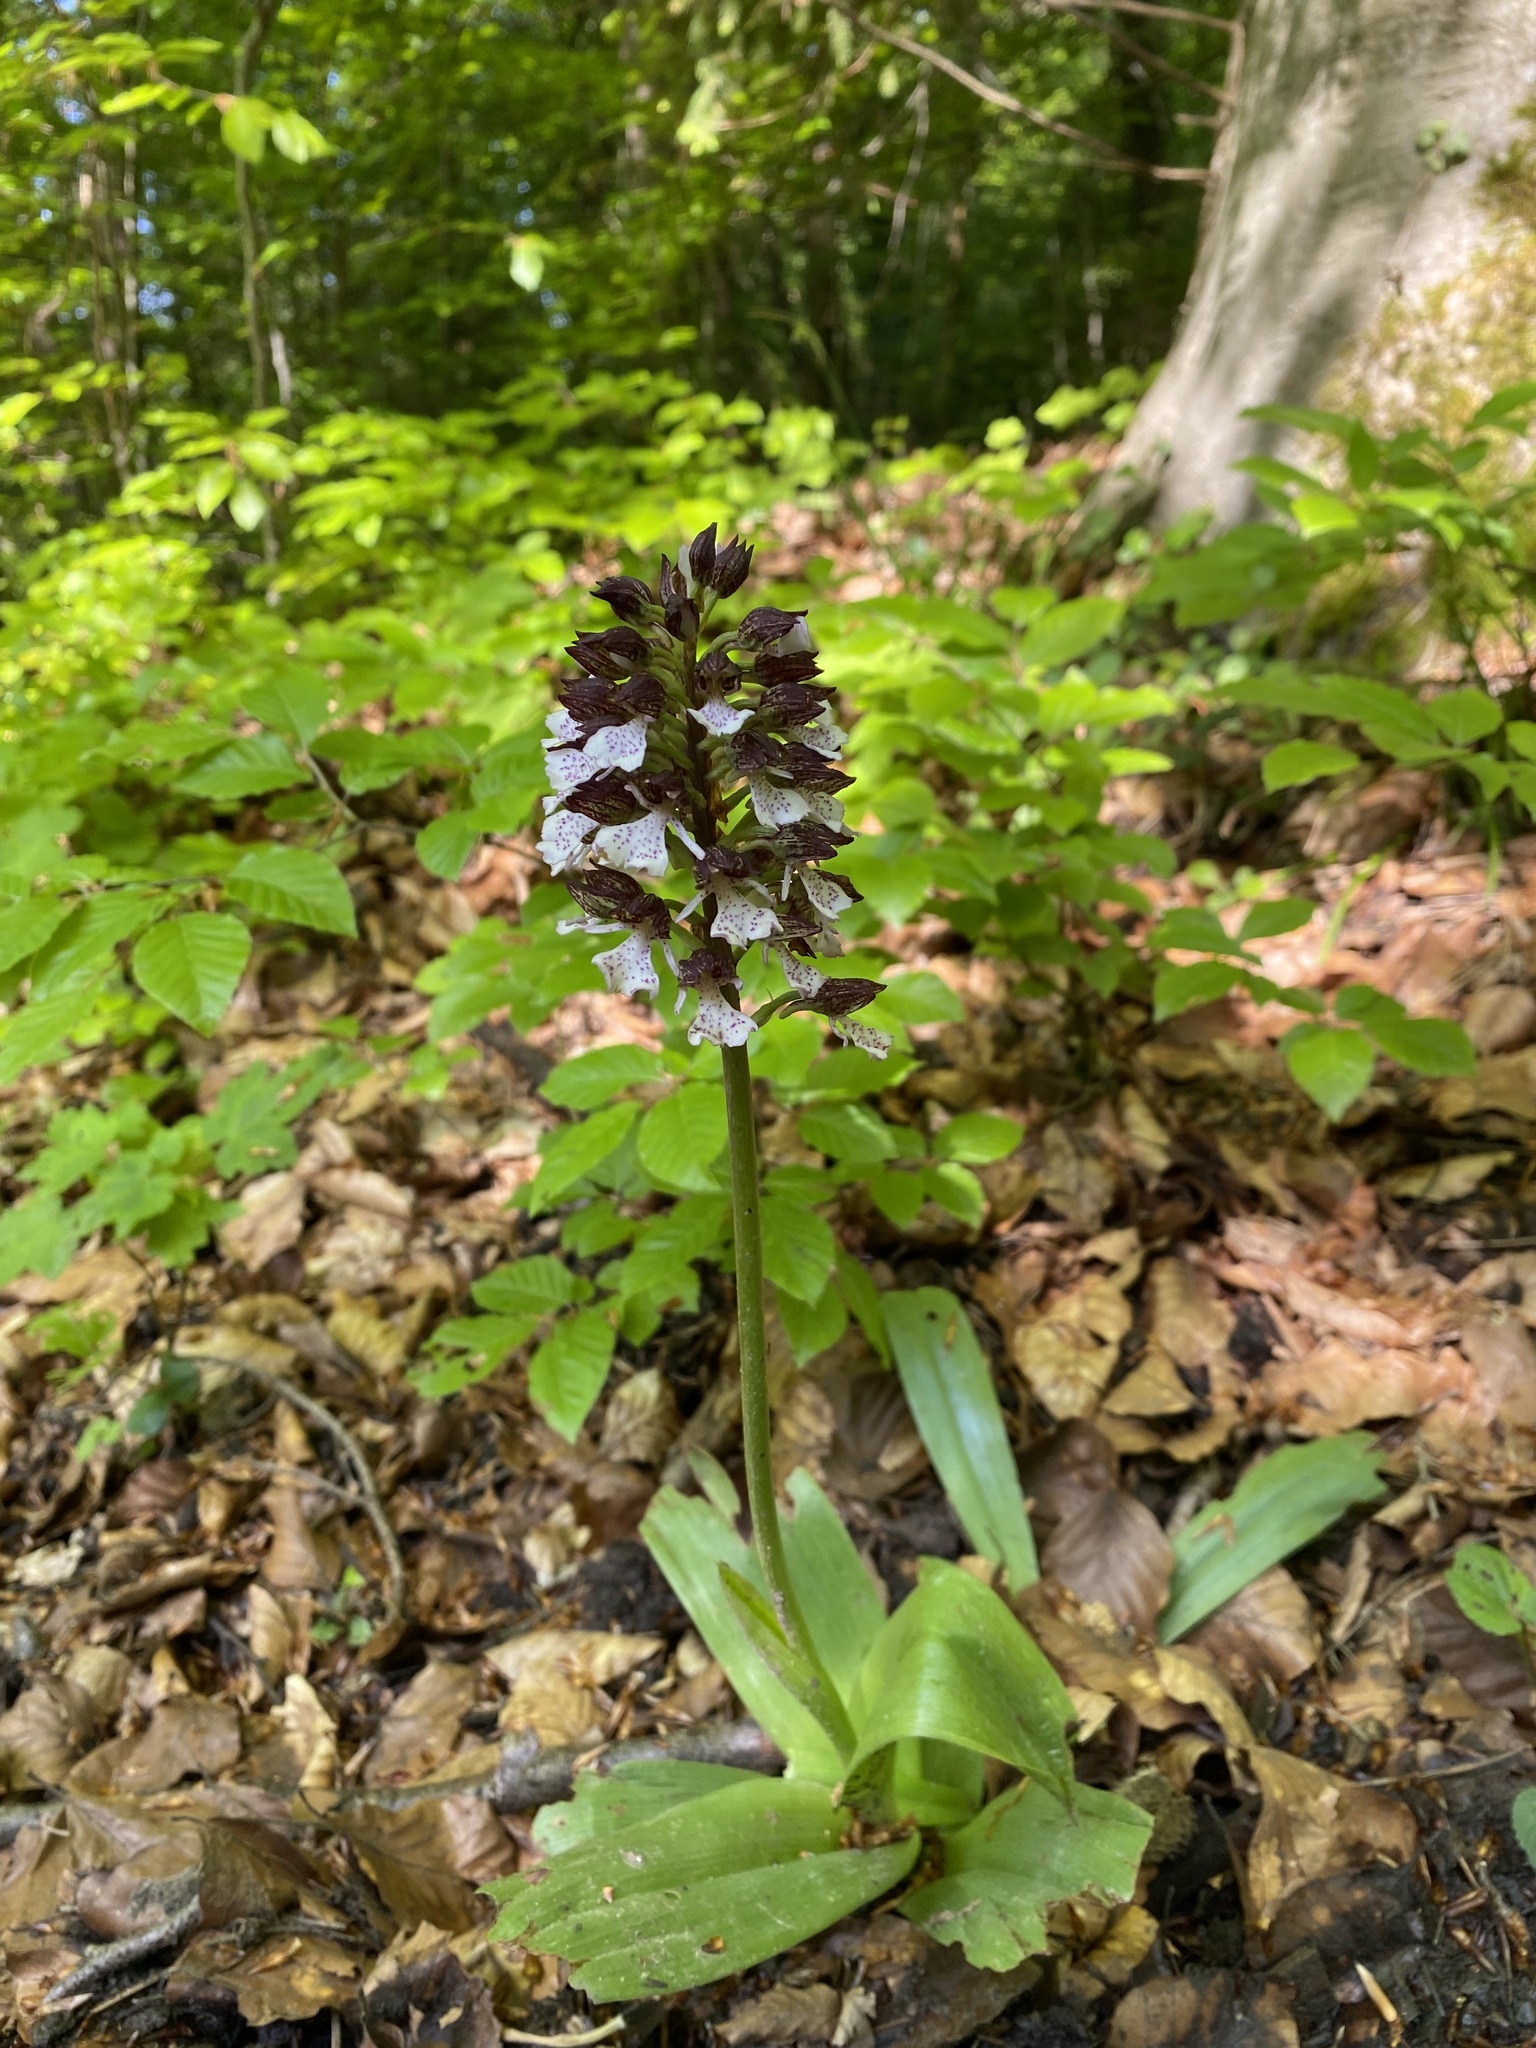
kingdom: Plantae
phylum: Tracheophyta
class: Liliopsida
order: Asparagales
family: Orchidaceae
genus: Orchis
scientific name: Orchis purpurea
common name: Lady orchid
